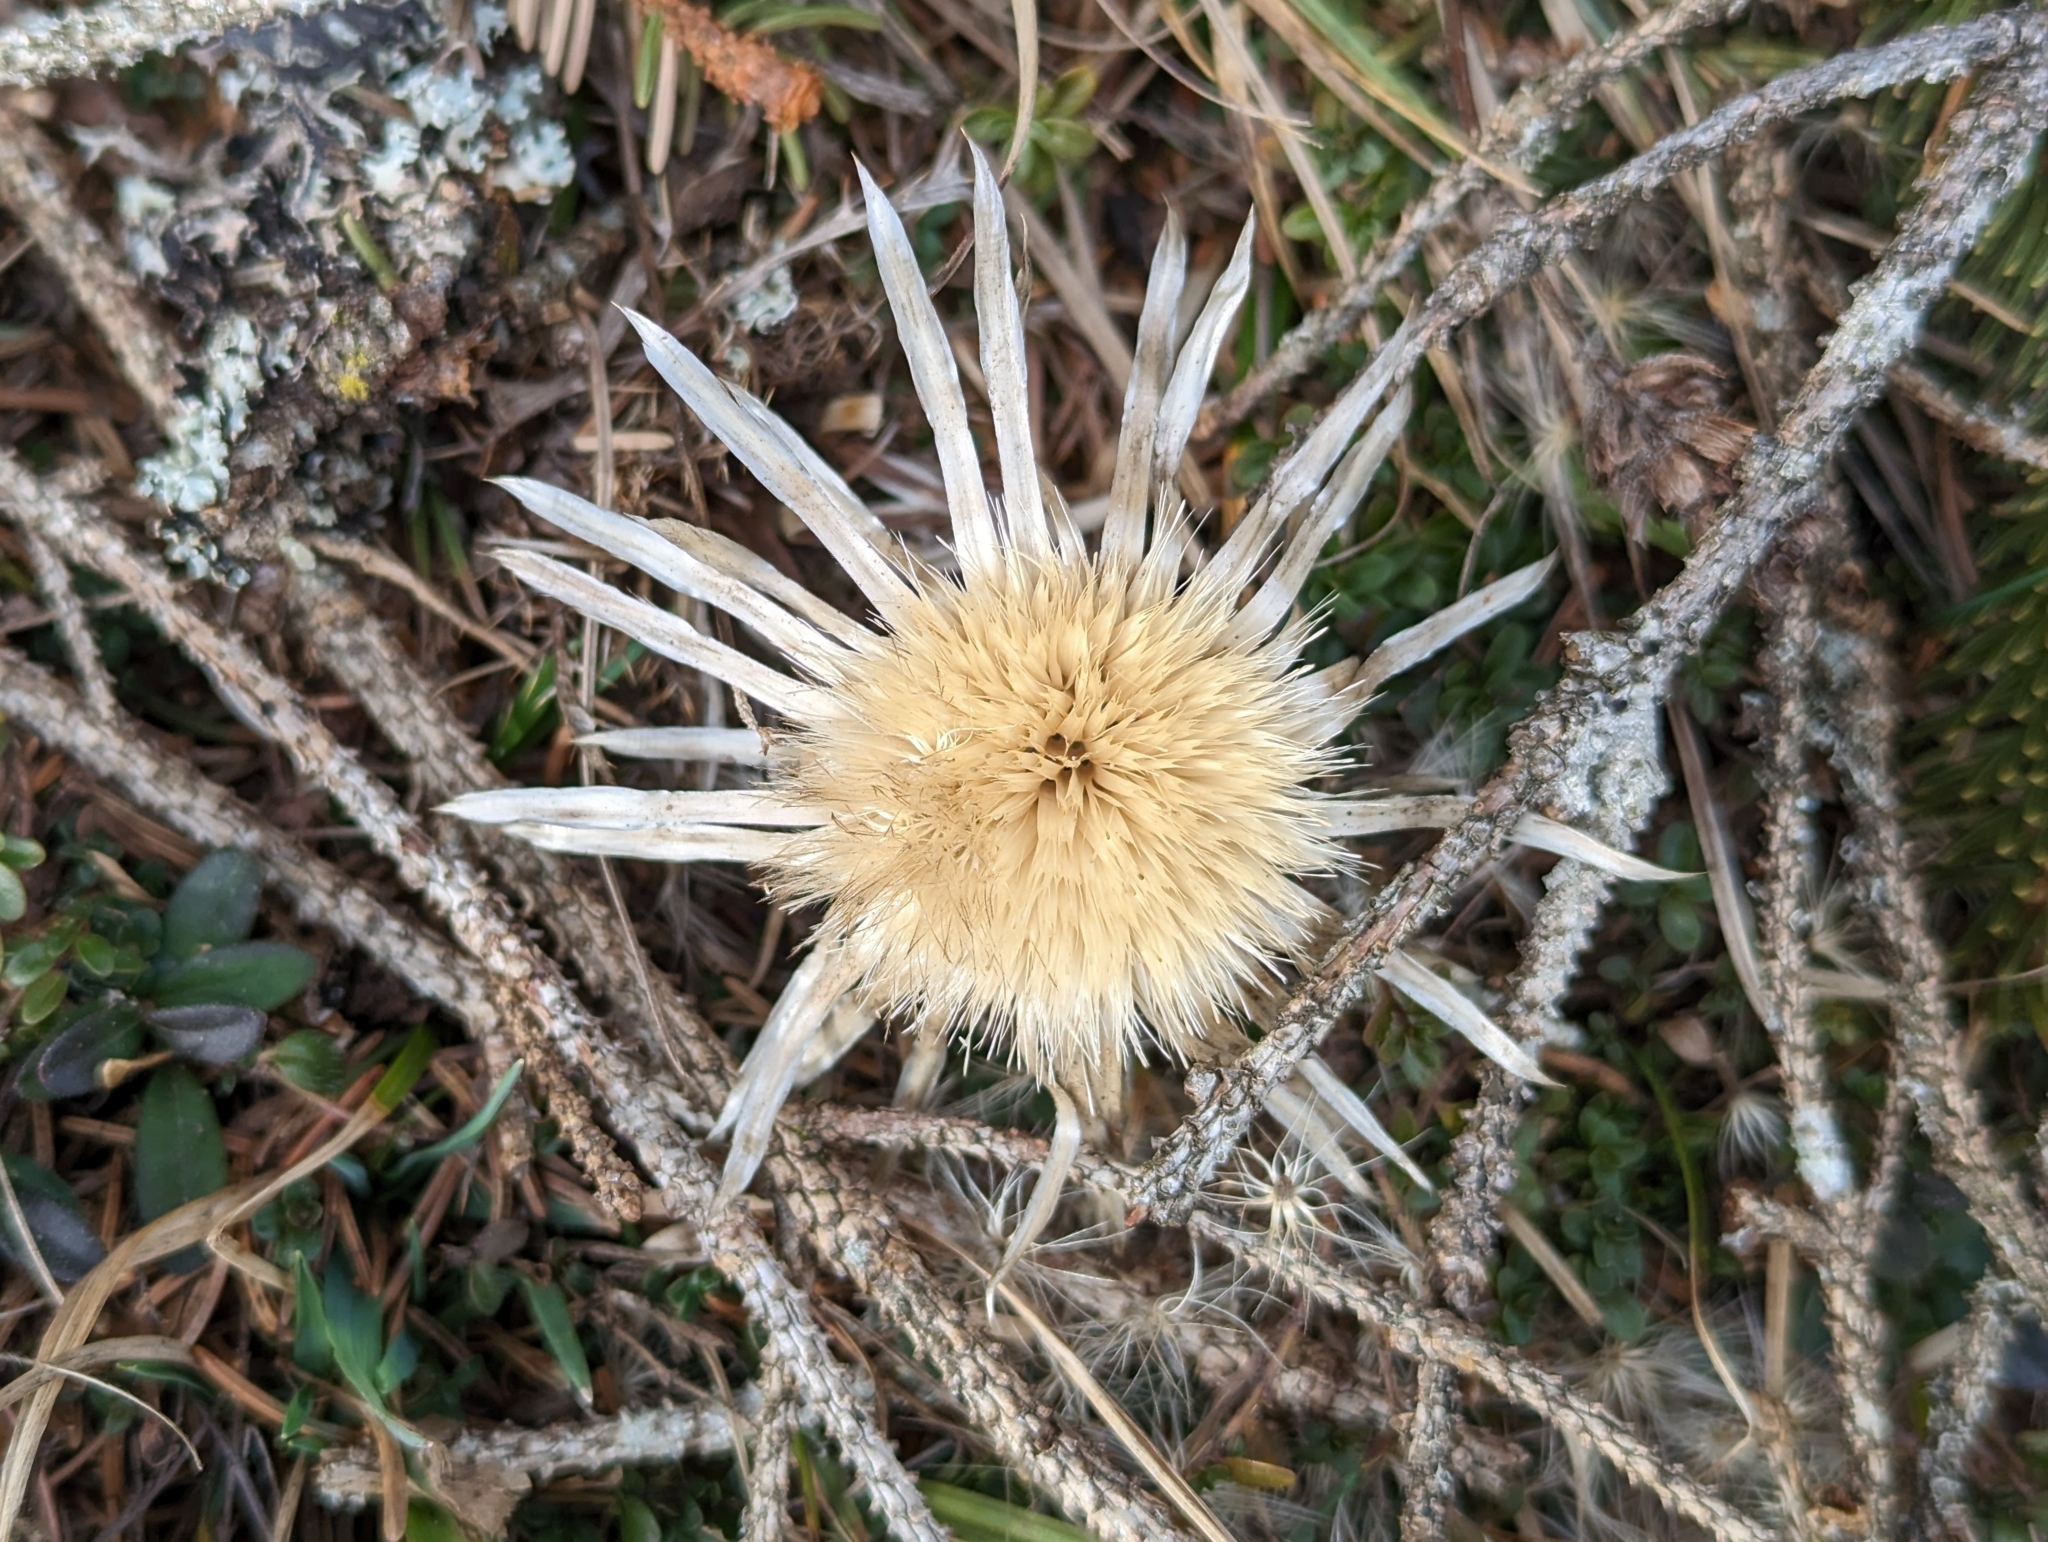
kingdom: Plantae
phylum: Tracheophyta
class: Magnoliopsida
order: Asterales
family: Asteraceae
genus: Carlina
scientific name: Carlina acaulis
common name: Stemless carline thistle
